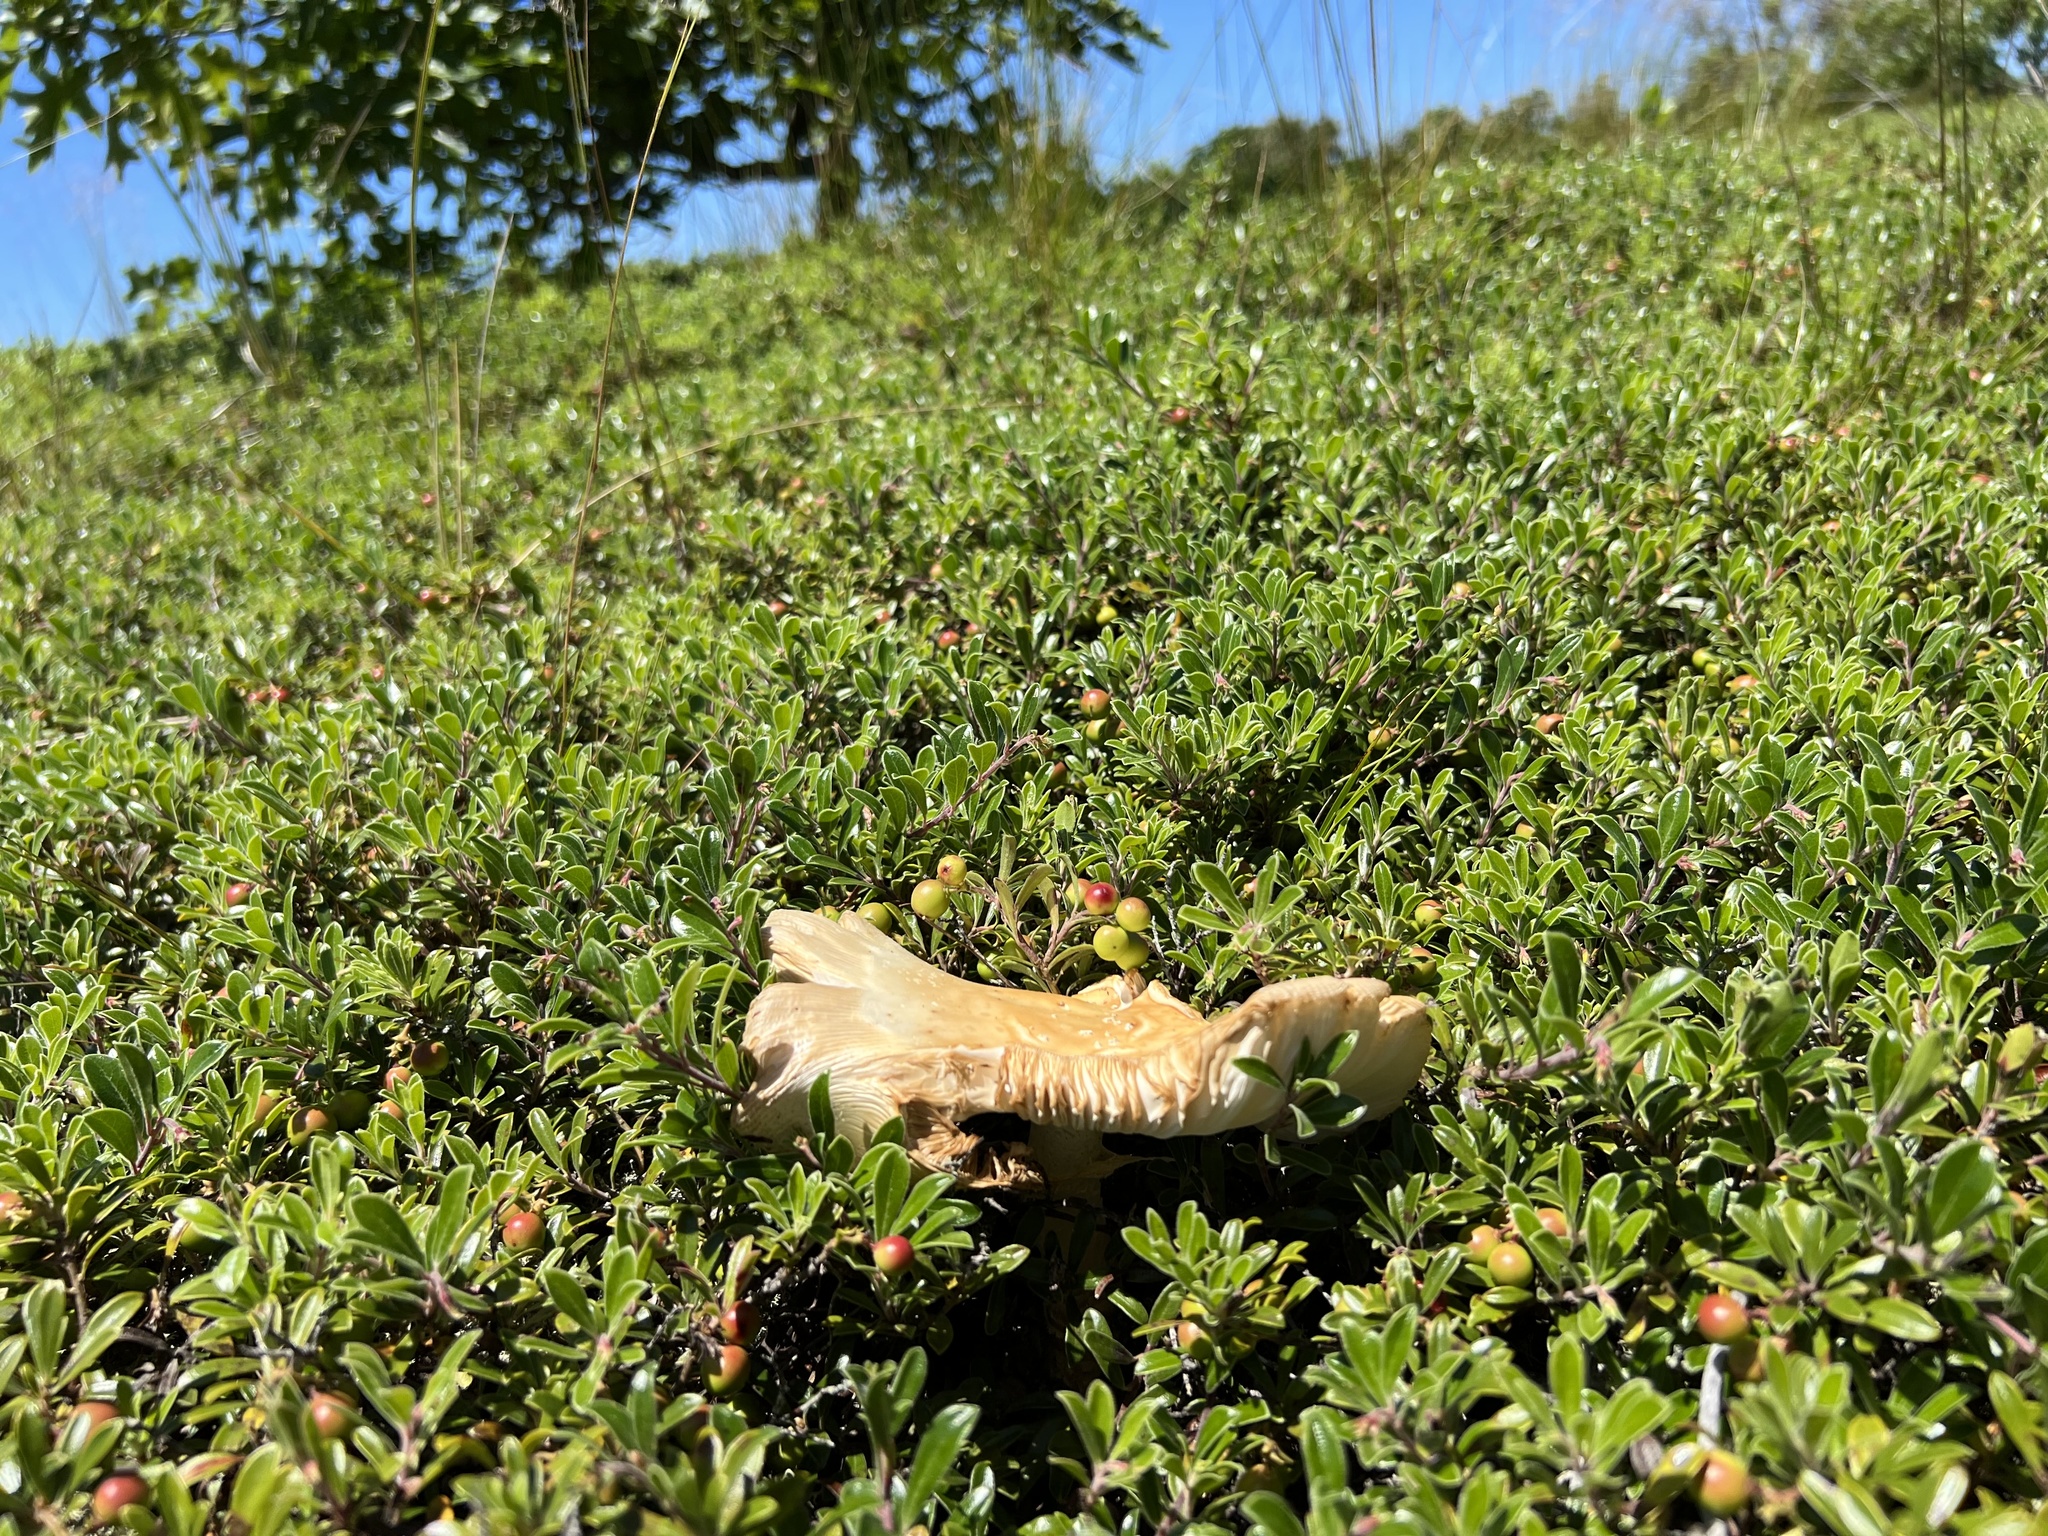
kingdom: Fungi
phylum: Basidiomycota
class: Agaricomycetes
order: Agaricales
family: Amanitaceae
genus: Amanita
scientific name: Amanita muscaria
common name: Fly agaric
